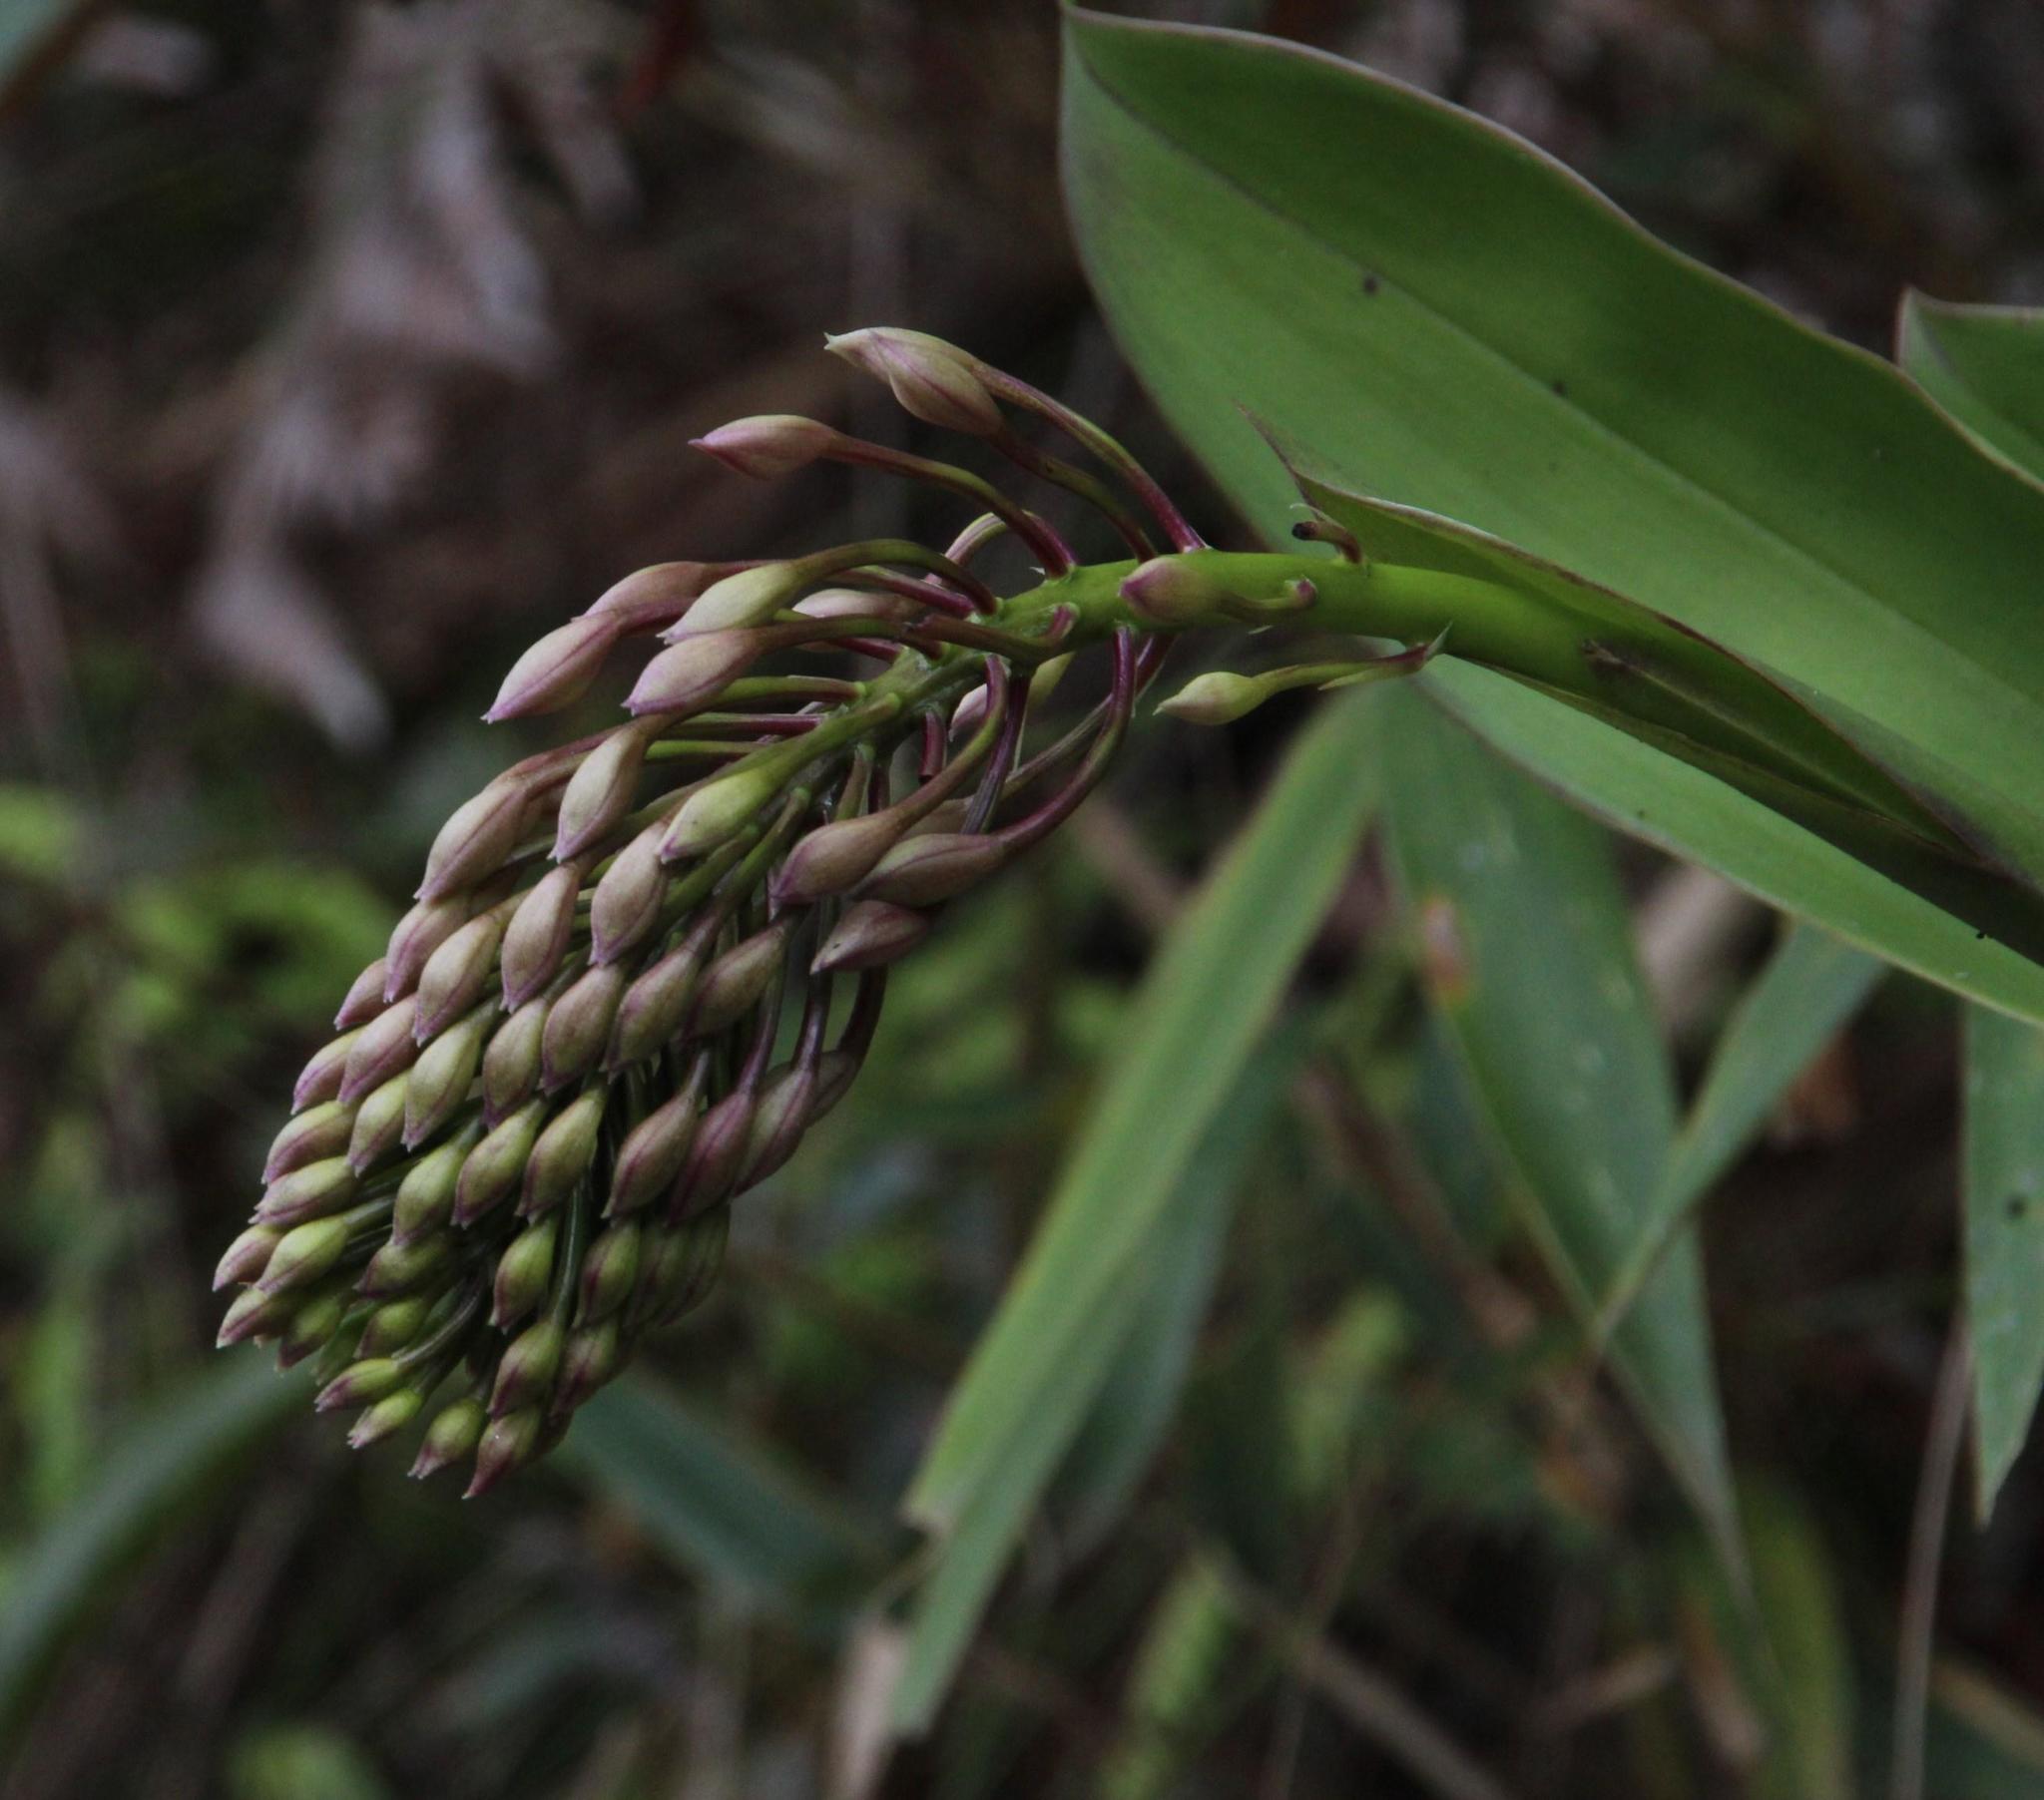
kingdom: Plantae
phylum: Tracheophyta
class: Liliopsida
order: Asparagales
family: Orchidaceae
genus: Epidendrum
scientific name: Epidendrum syringothyrsus
